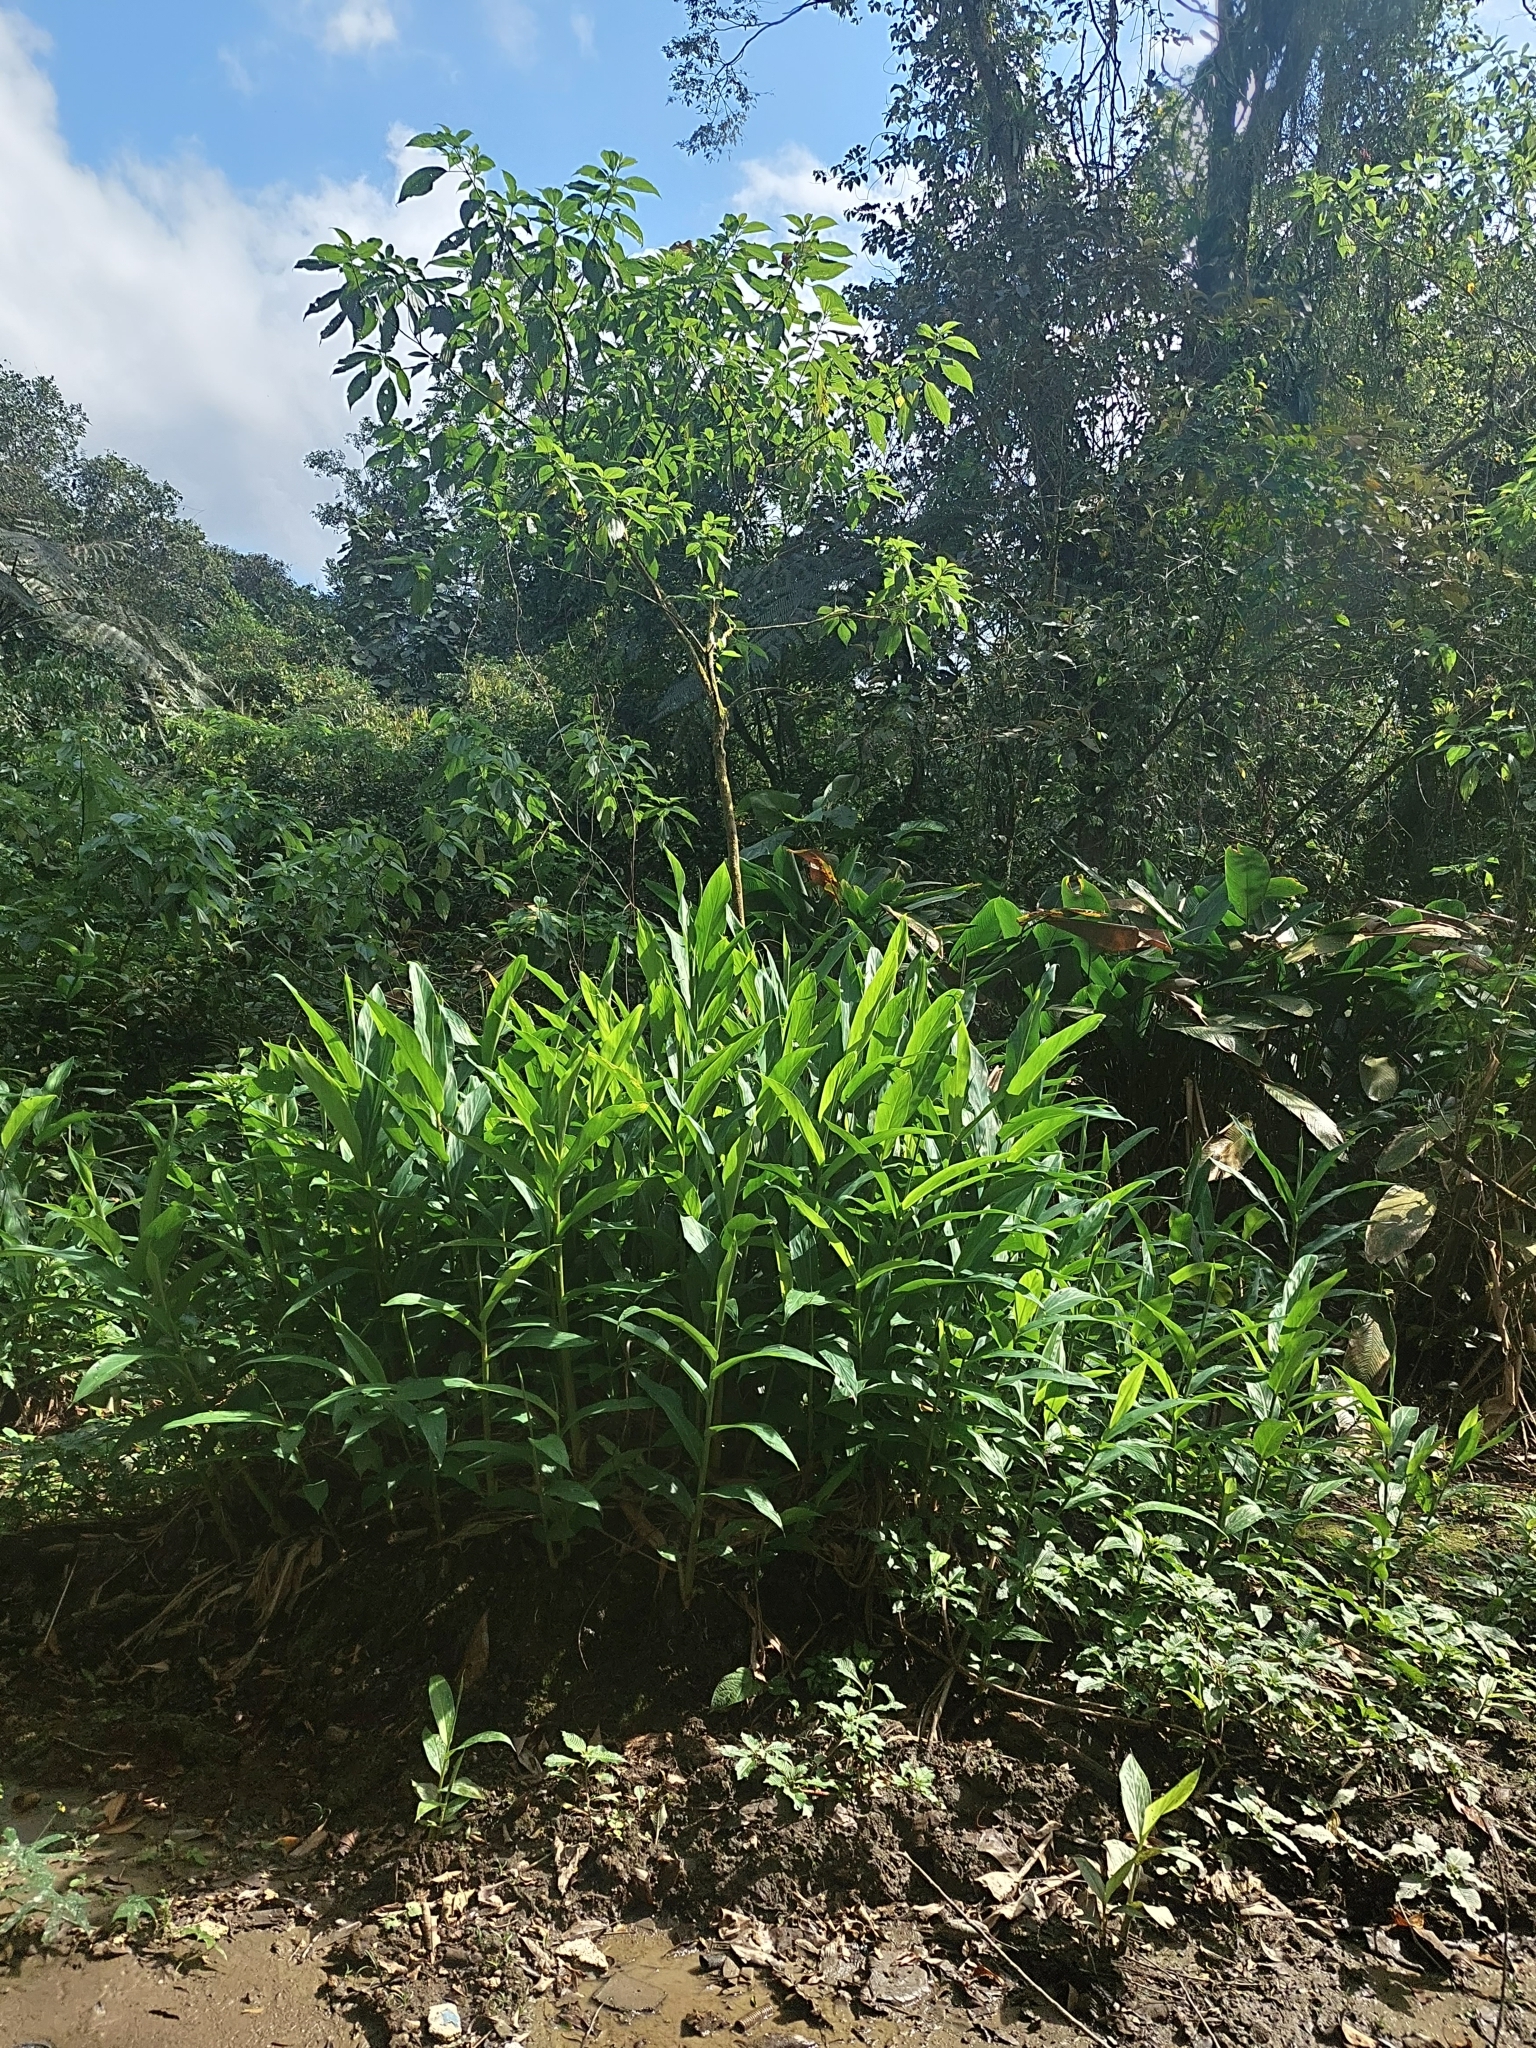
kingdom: Plantae
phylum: Tracheophyta
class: Liliopsida
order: Zingiberales
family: Zingiberaceae
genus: Hedychium
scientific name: Hedychium coronarium
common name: White garland-lily
